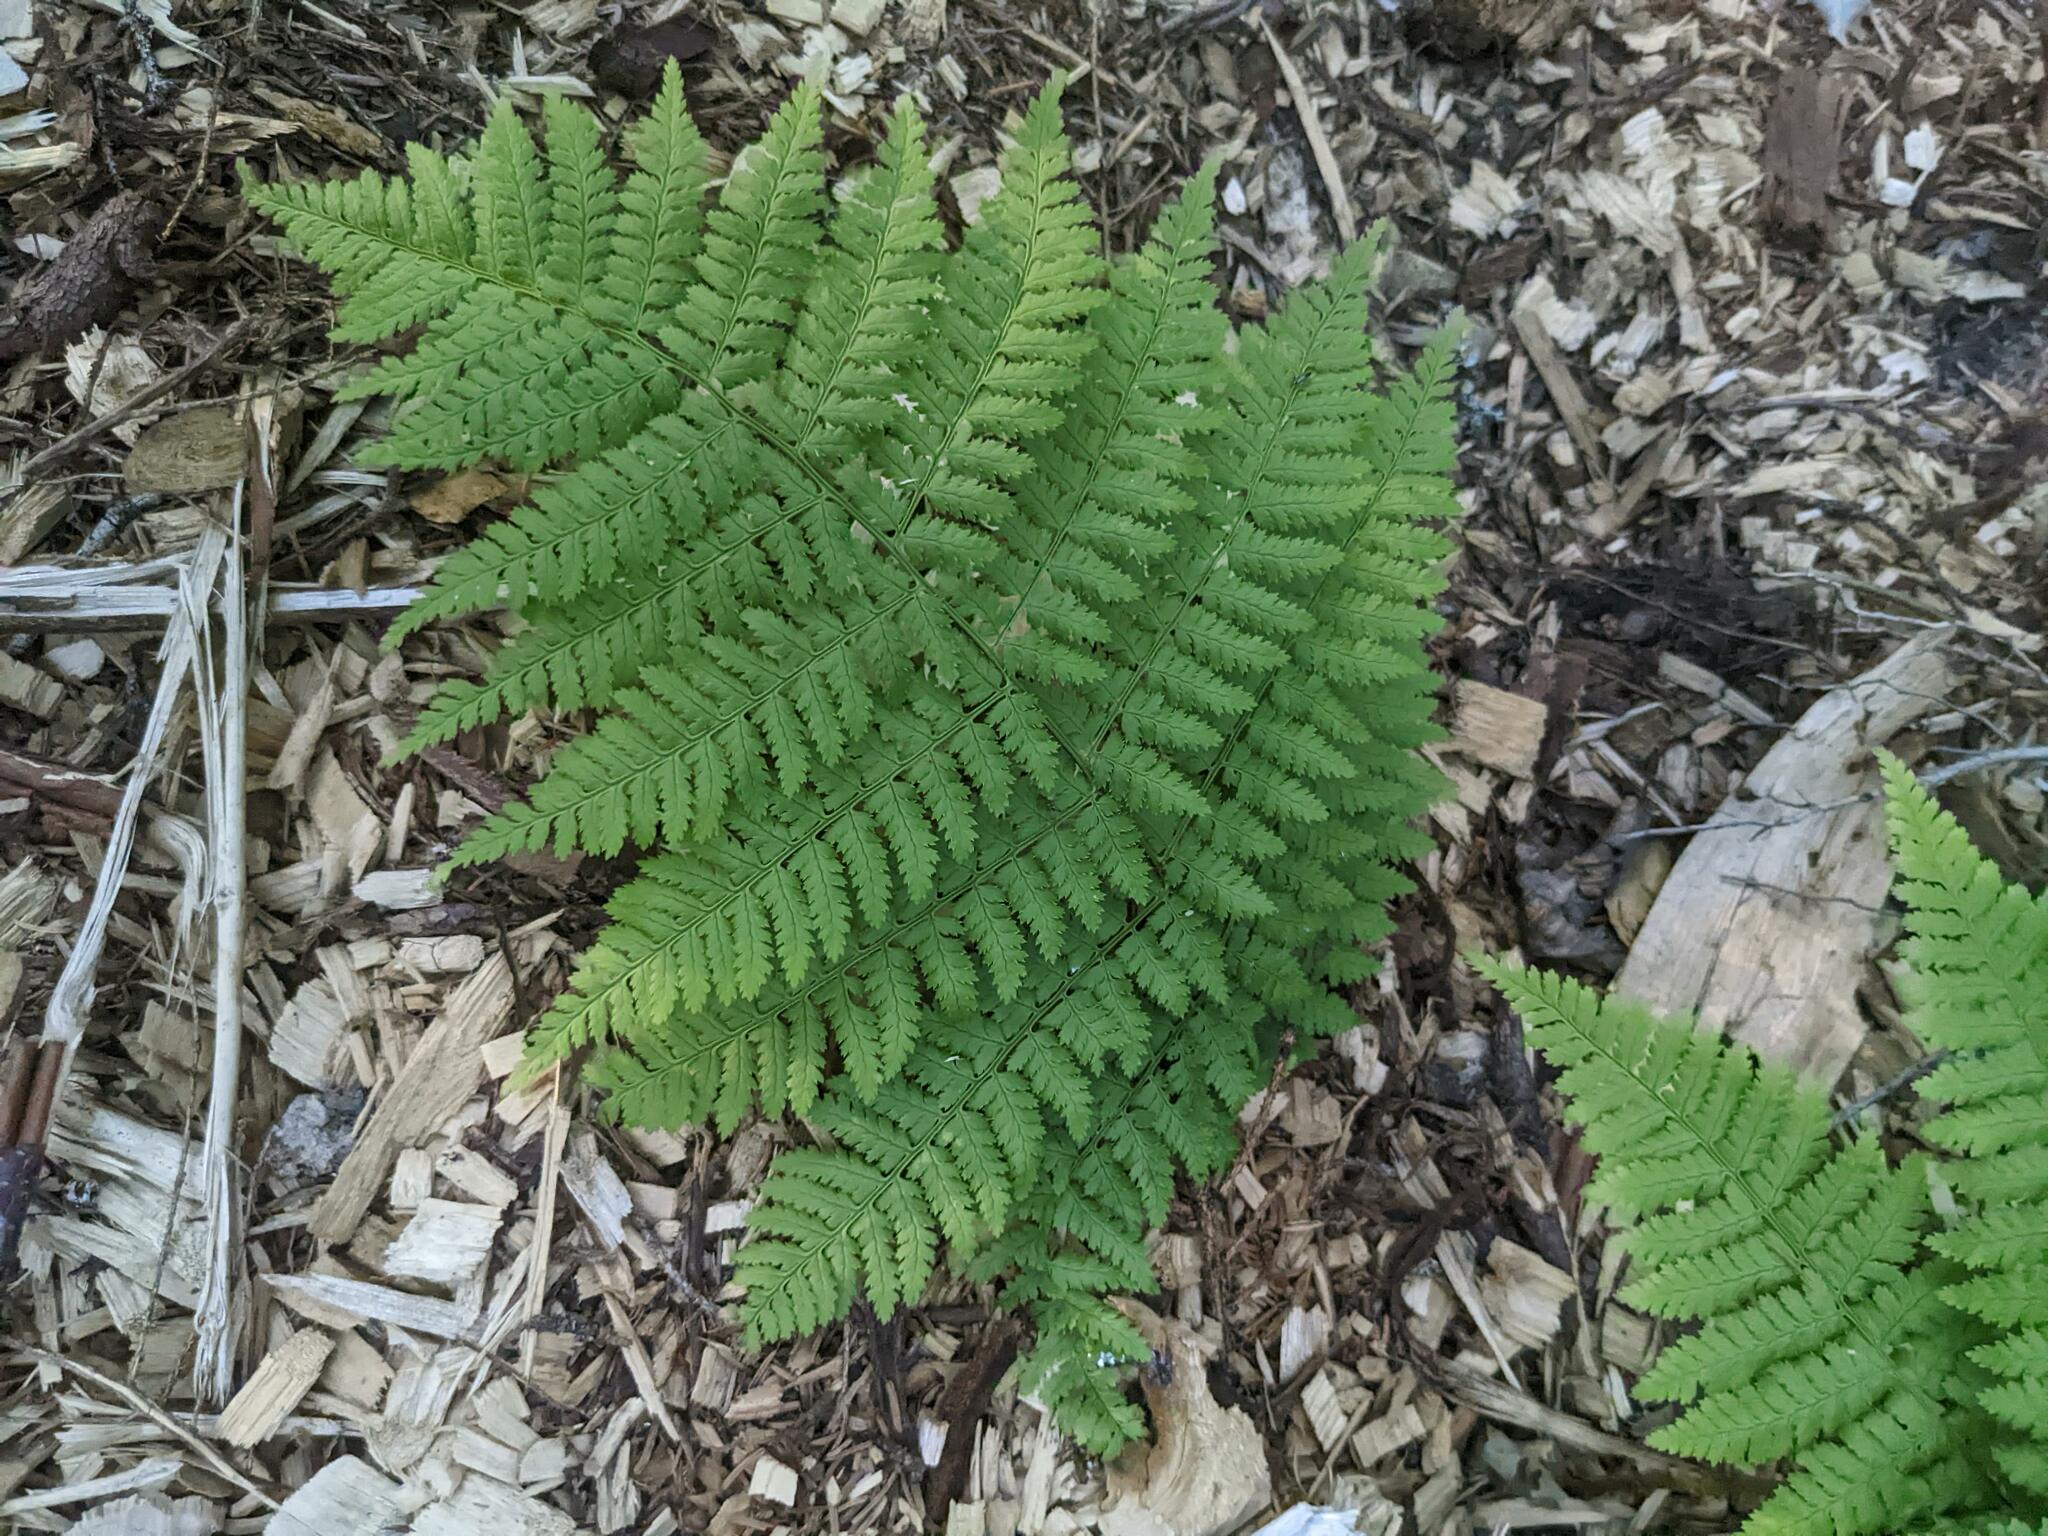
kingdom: Plantae
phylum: Tracheophyta
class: Polypodiopsida
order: Polypodiales
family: Dryopteridaceae
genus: Dryopteris
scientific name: Dryopteris intermedia
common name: Evergreen wood fern
